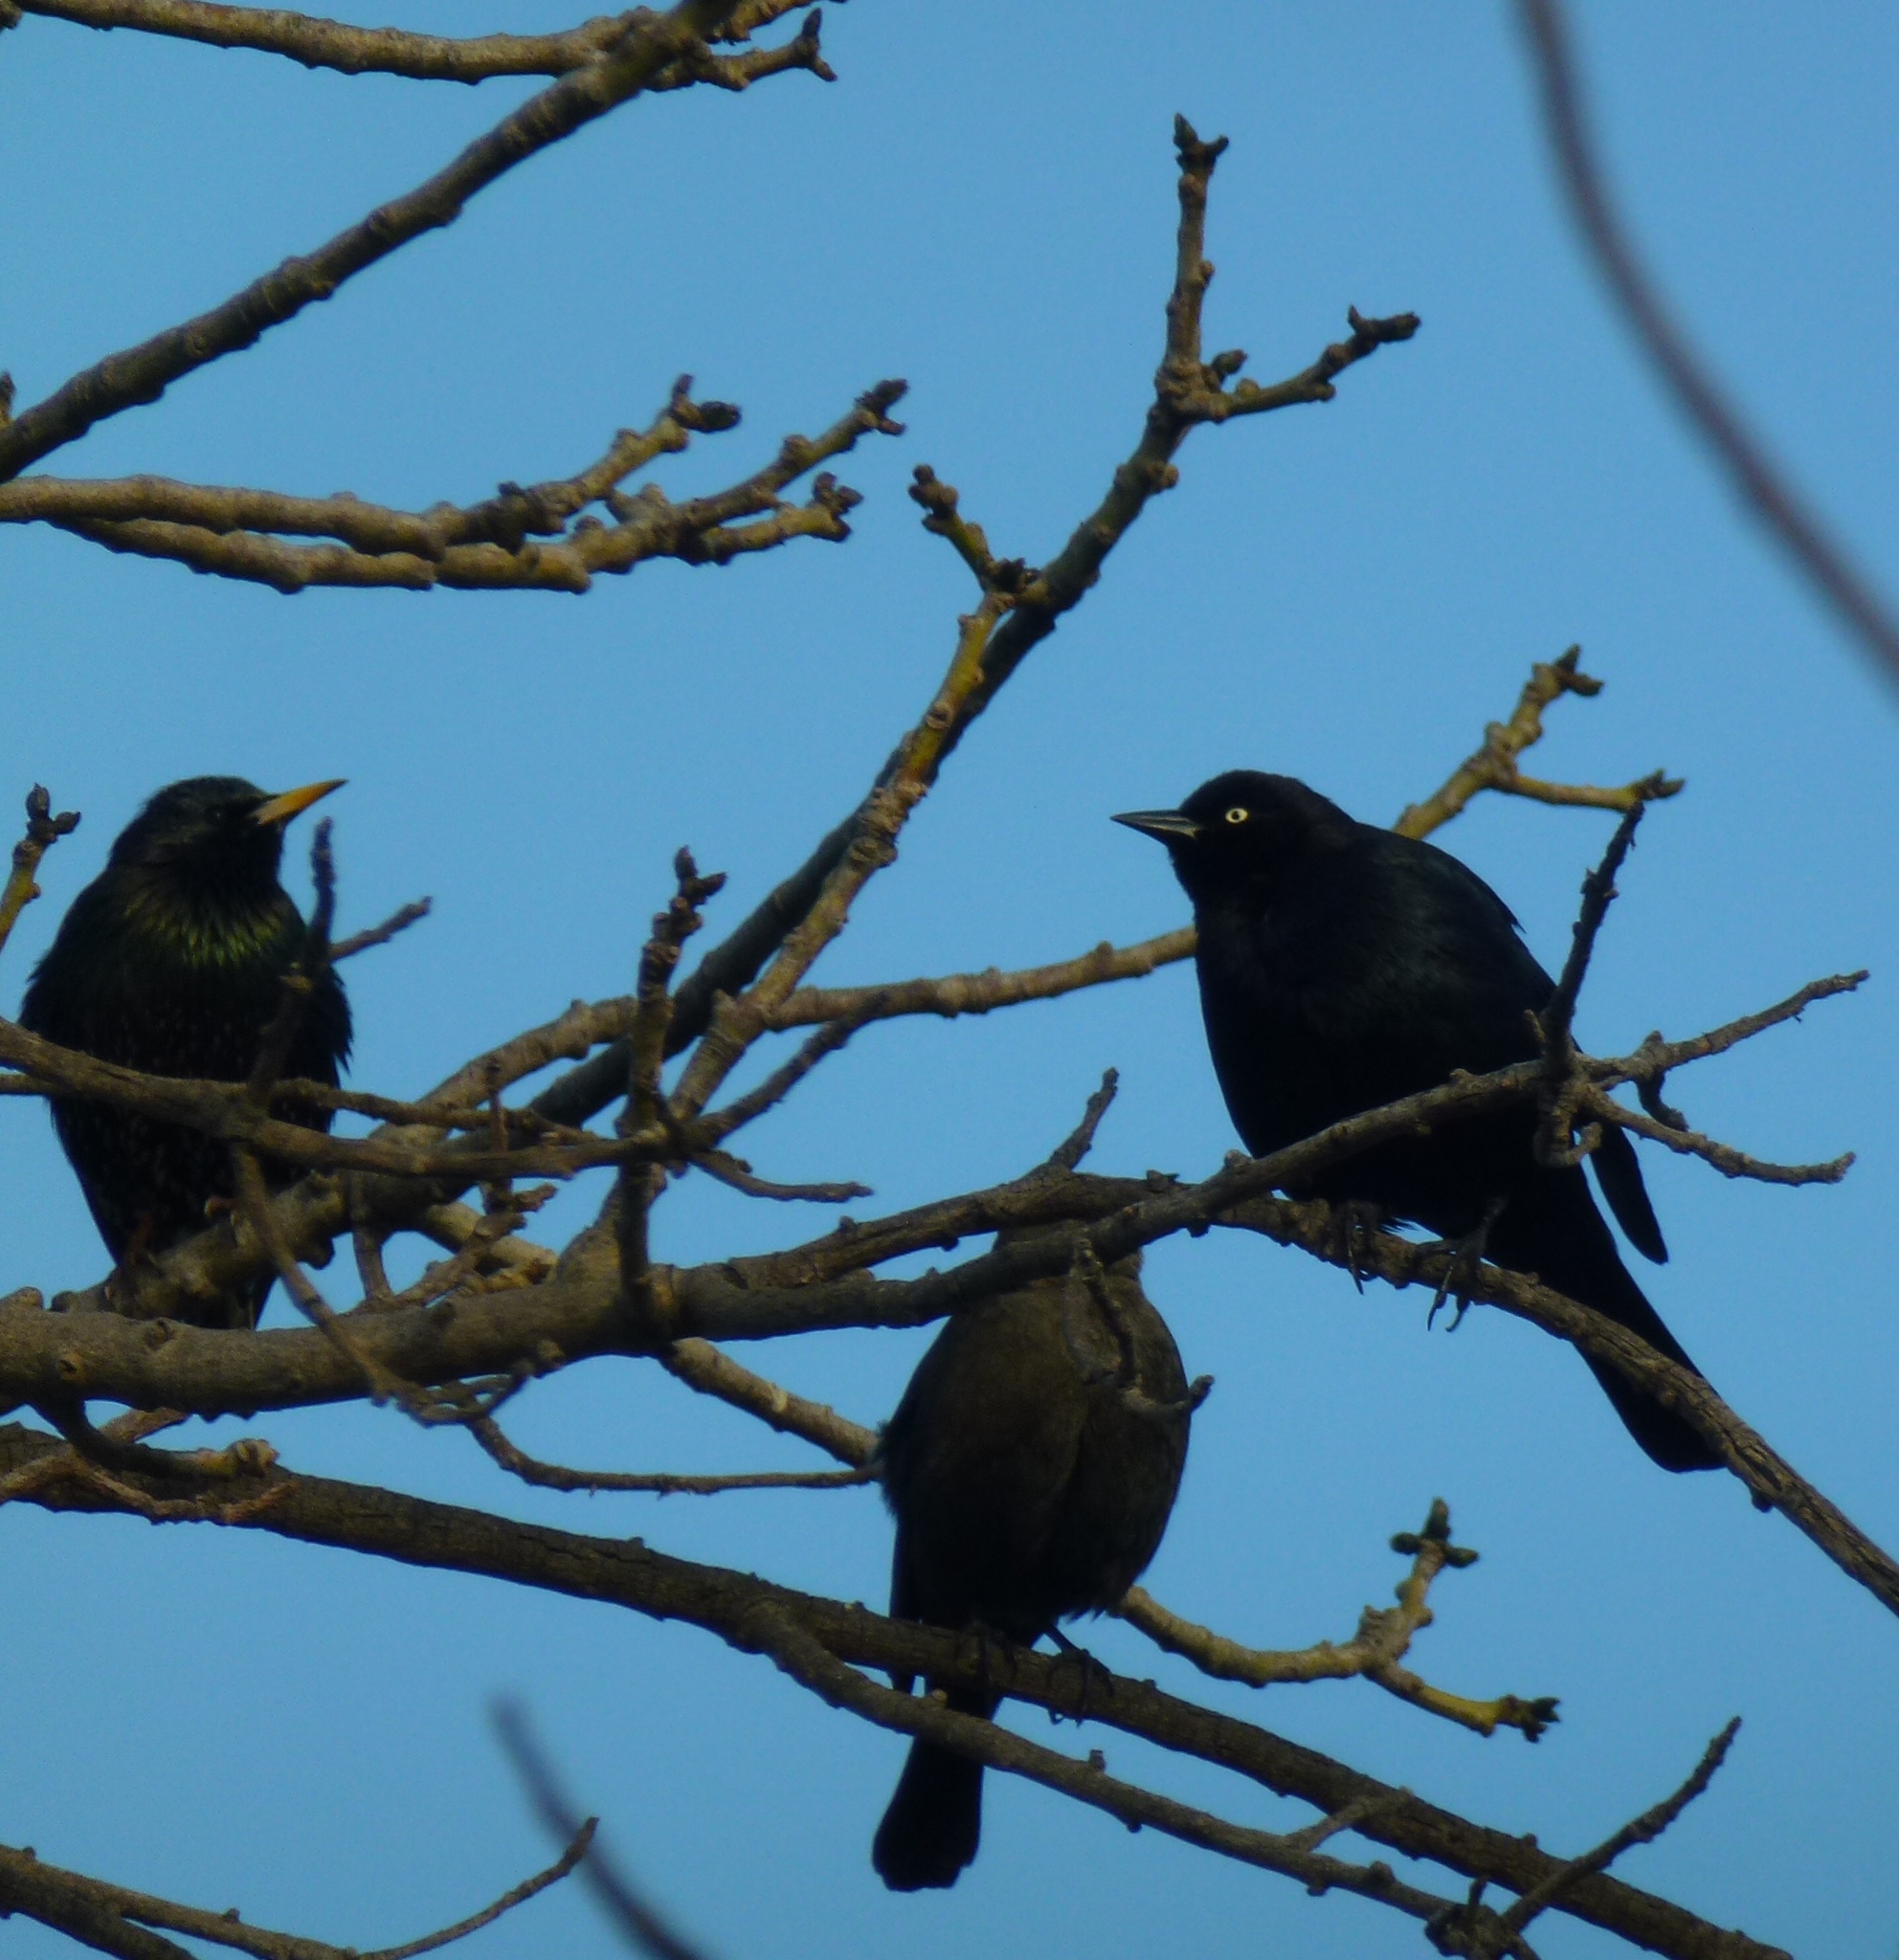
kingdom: Animalia
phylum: Chordata
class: Aves
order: Passeriformes
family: Sturnidae
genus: Sturnus
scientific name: Sturnus vulgaris
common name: Common starling
